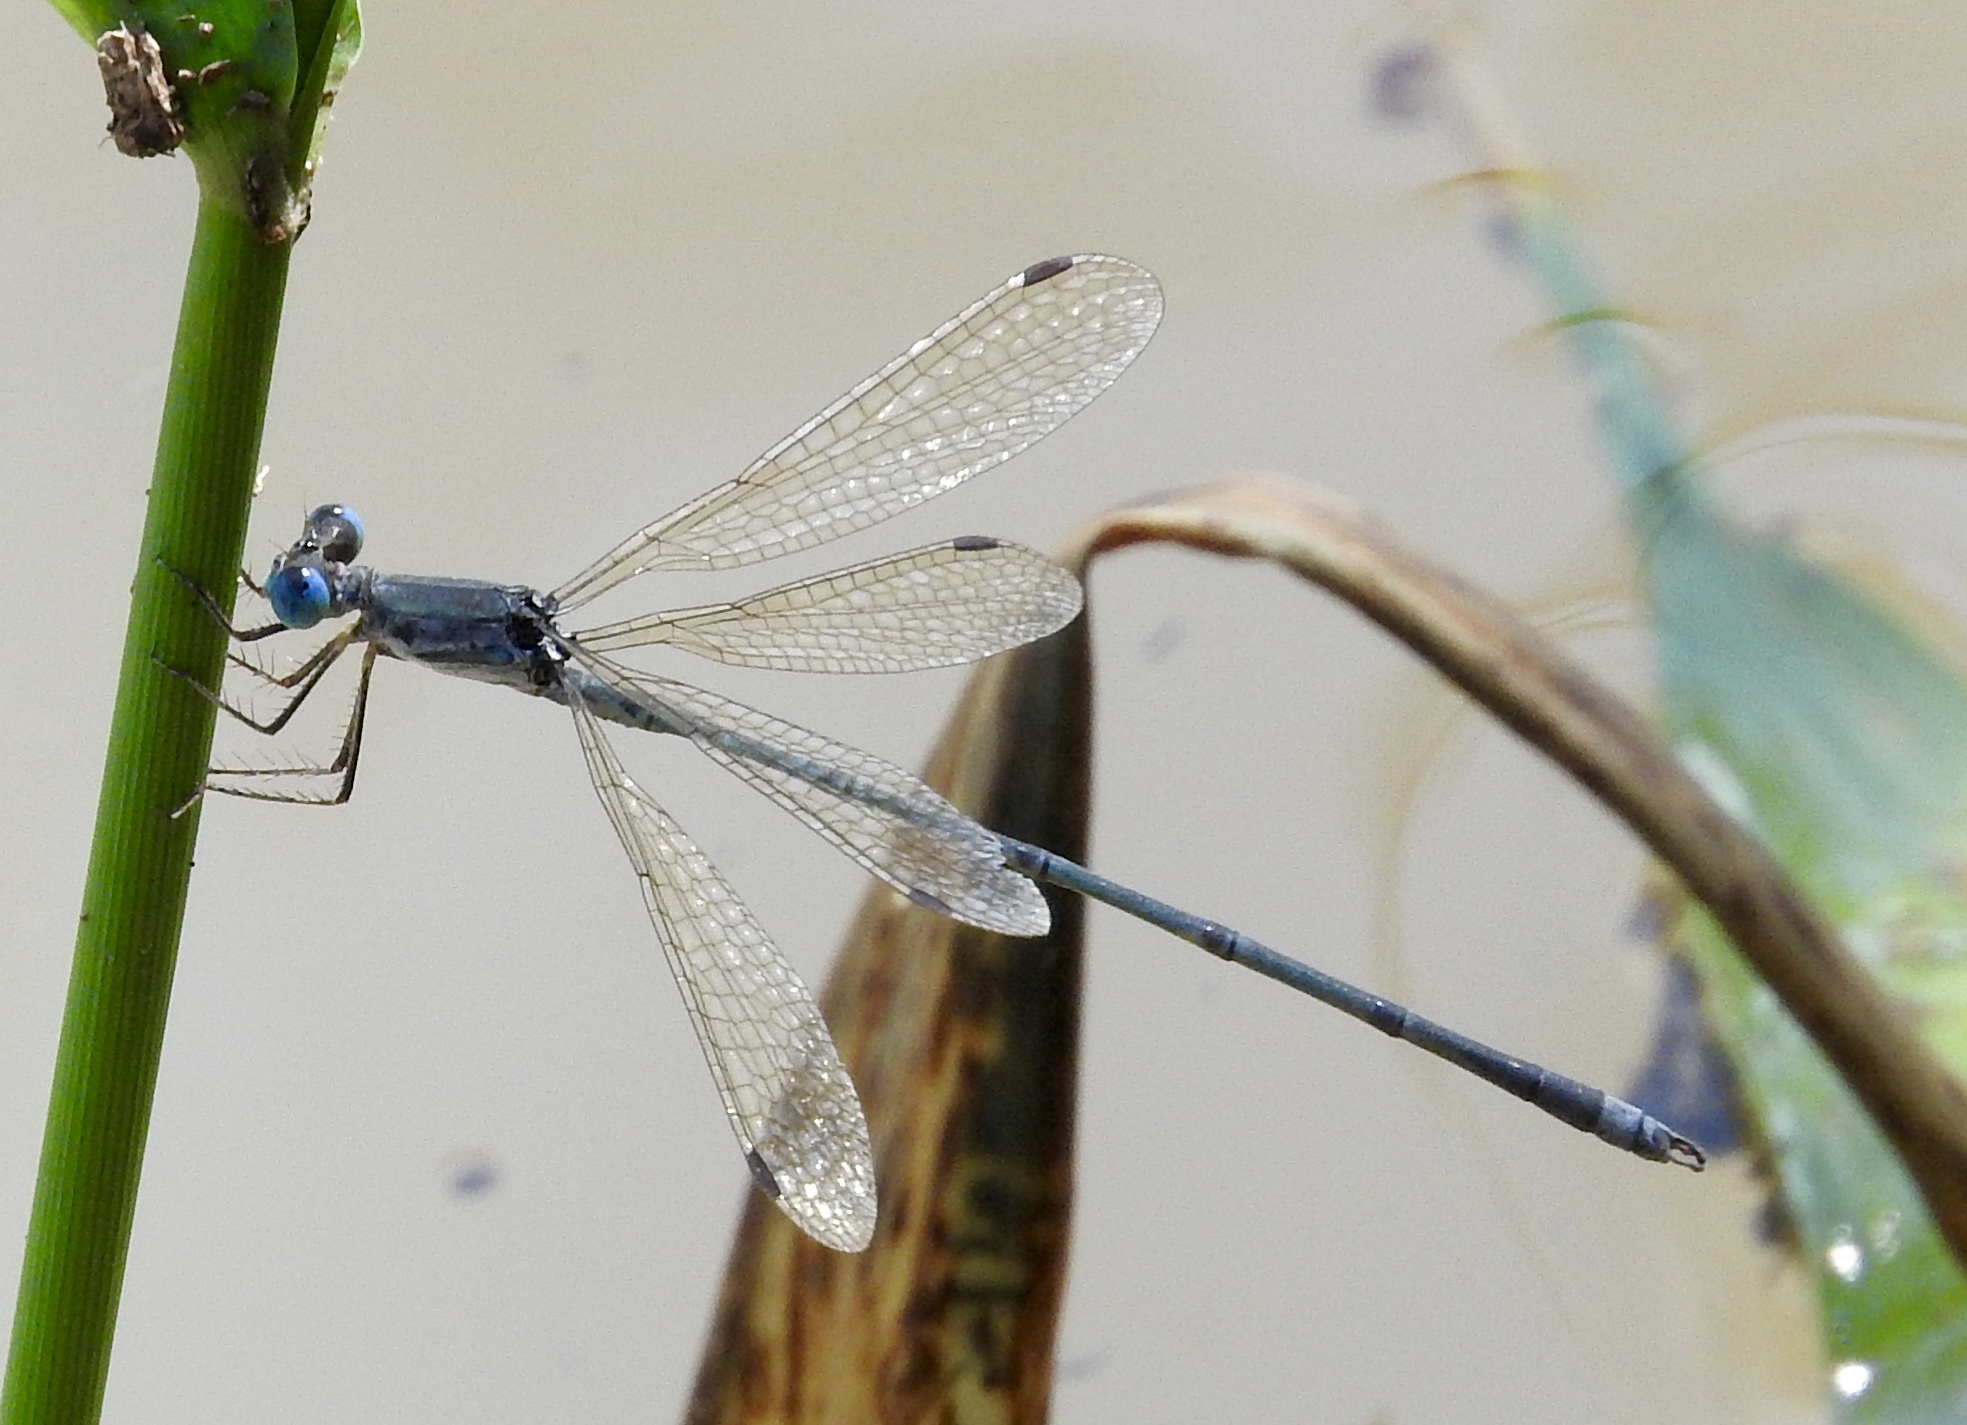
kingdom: Animalia
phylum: Arthropoda
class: Insecta
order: Odonata
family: Lestidae
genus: Lestes
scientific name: Lestes pallidus
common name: Pallid spreadwing
